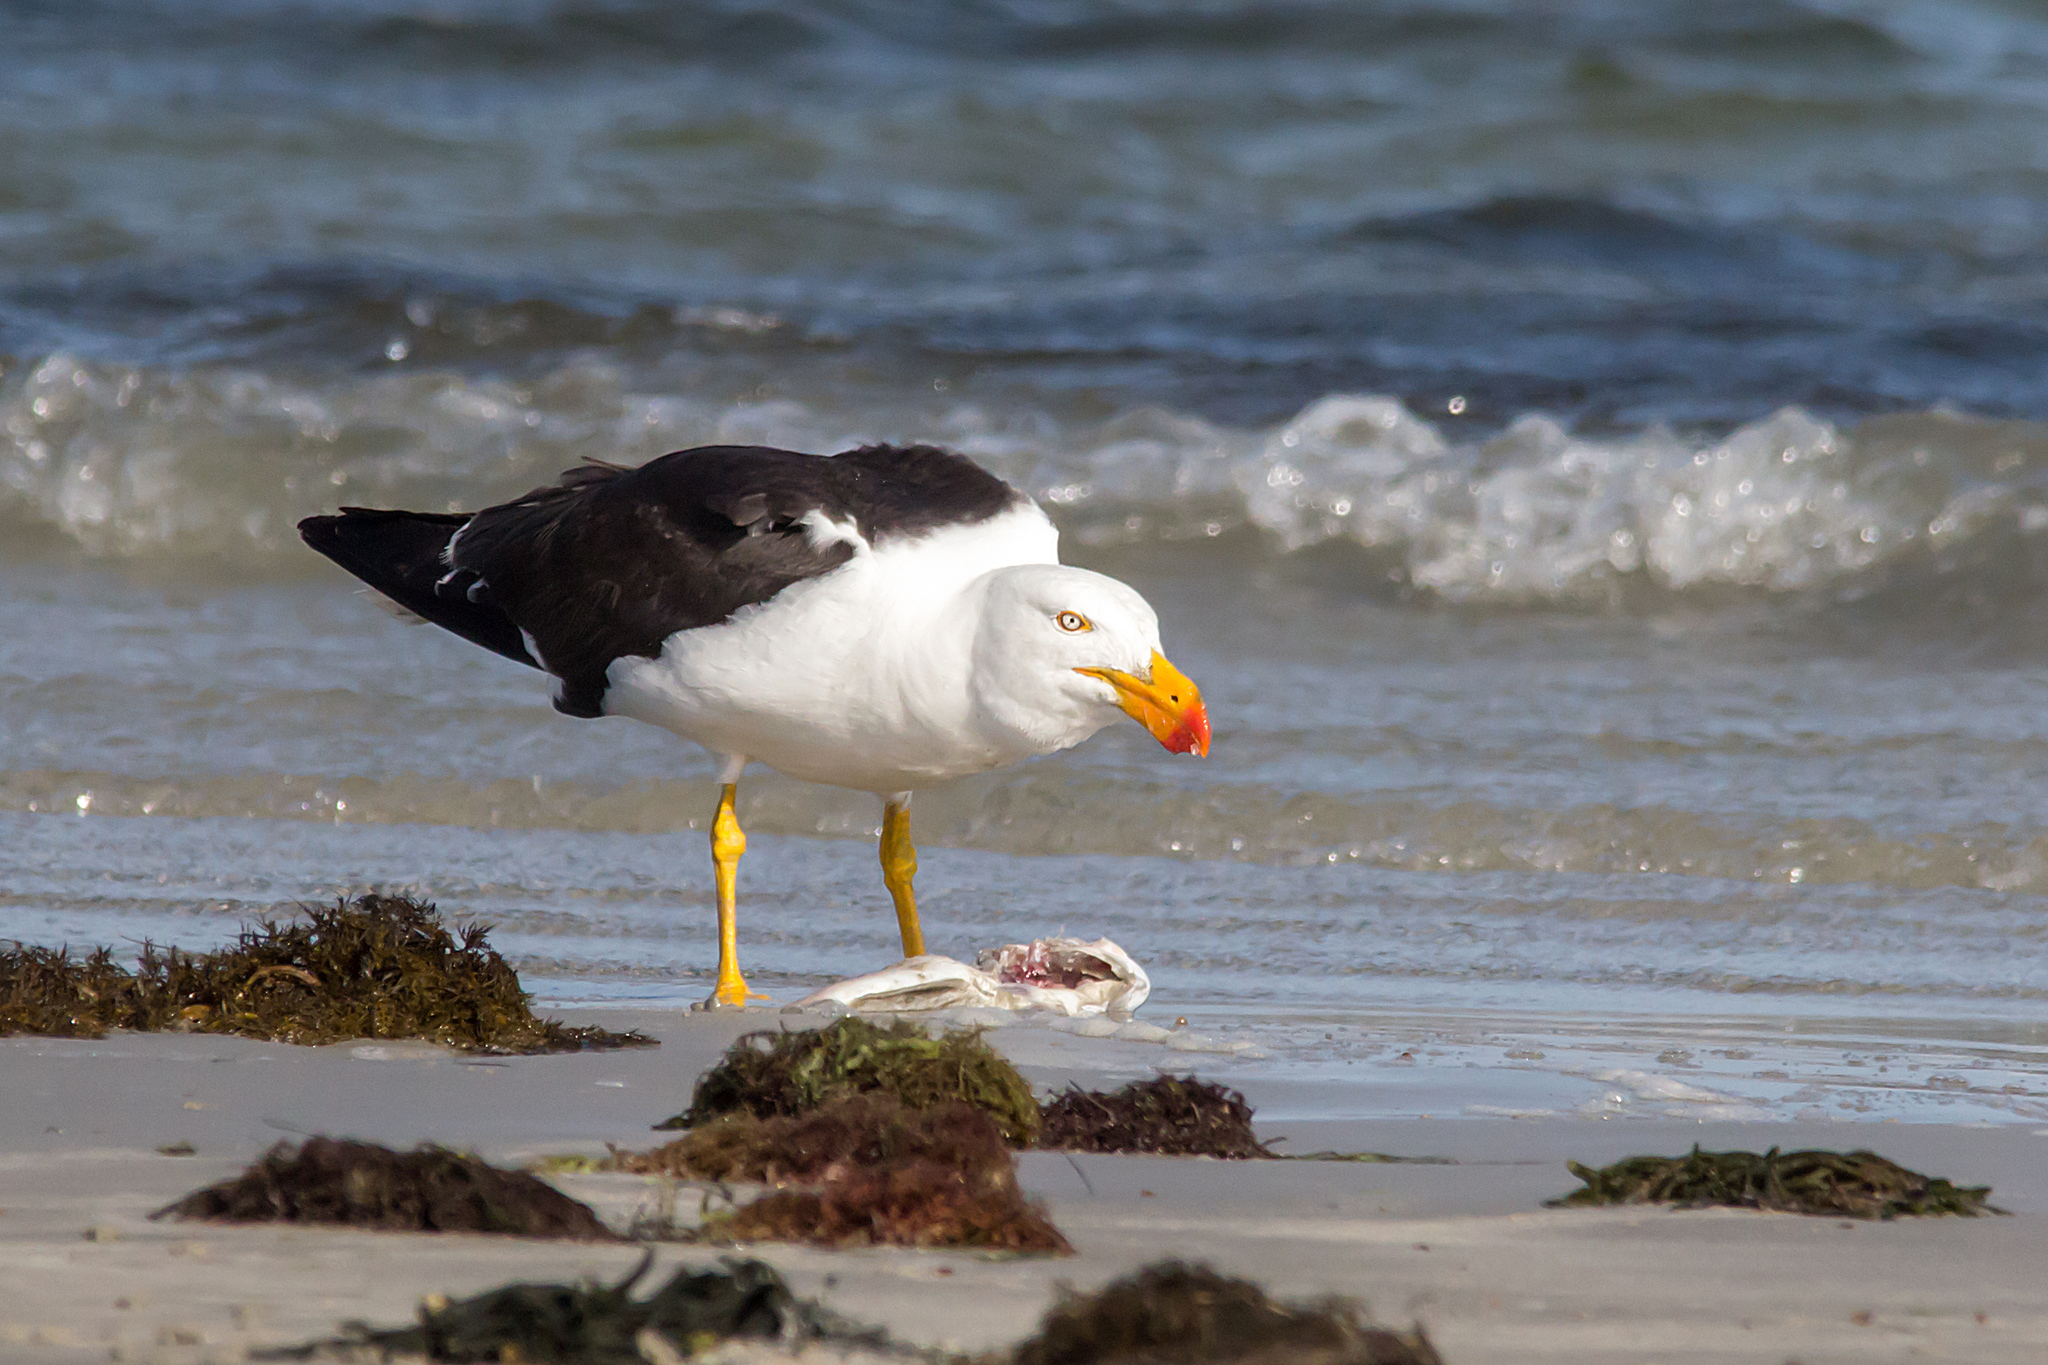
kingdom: Animalia
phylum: Chordata
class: Aves
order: Charadriiformes
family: Laridae
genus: Larus
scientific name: Larus pacificus
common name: Pacific gull
